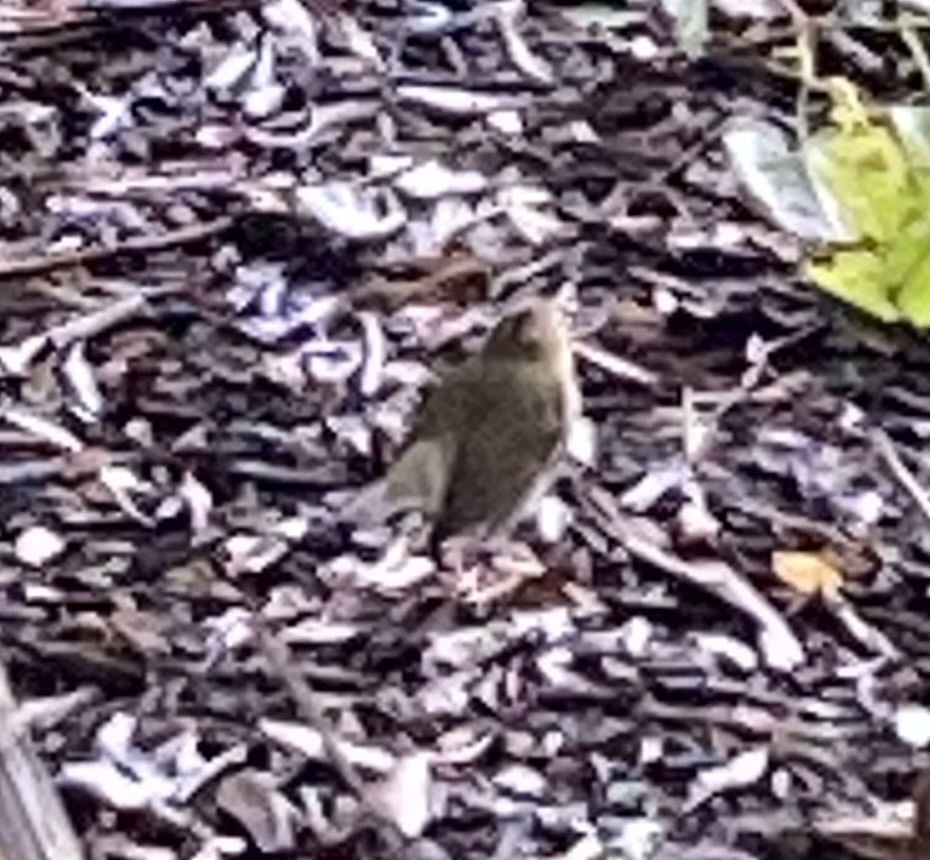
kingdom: Animalia
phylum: Chordata
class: Aves
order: Passeriformes
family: Parulidae
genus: Seiurus
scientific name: Seiurus aurocapilla
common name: Ovenbird
